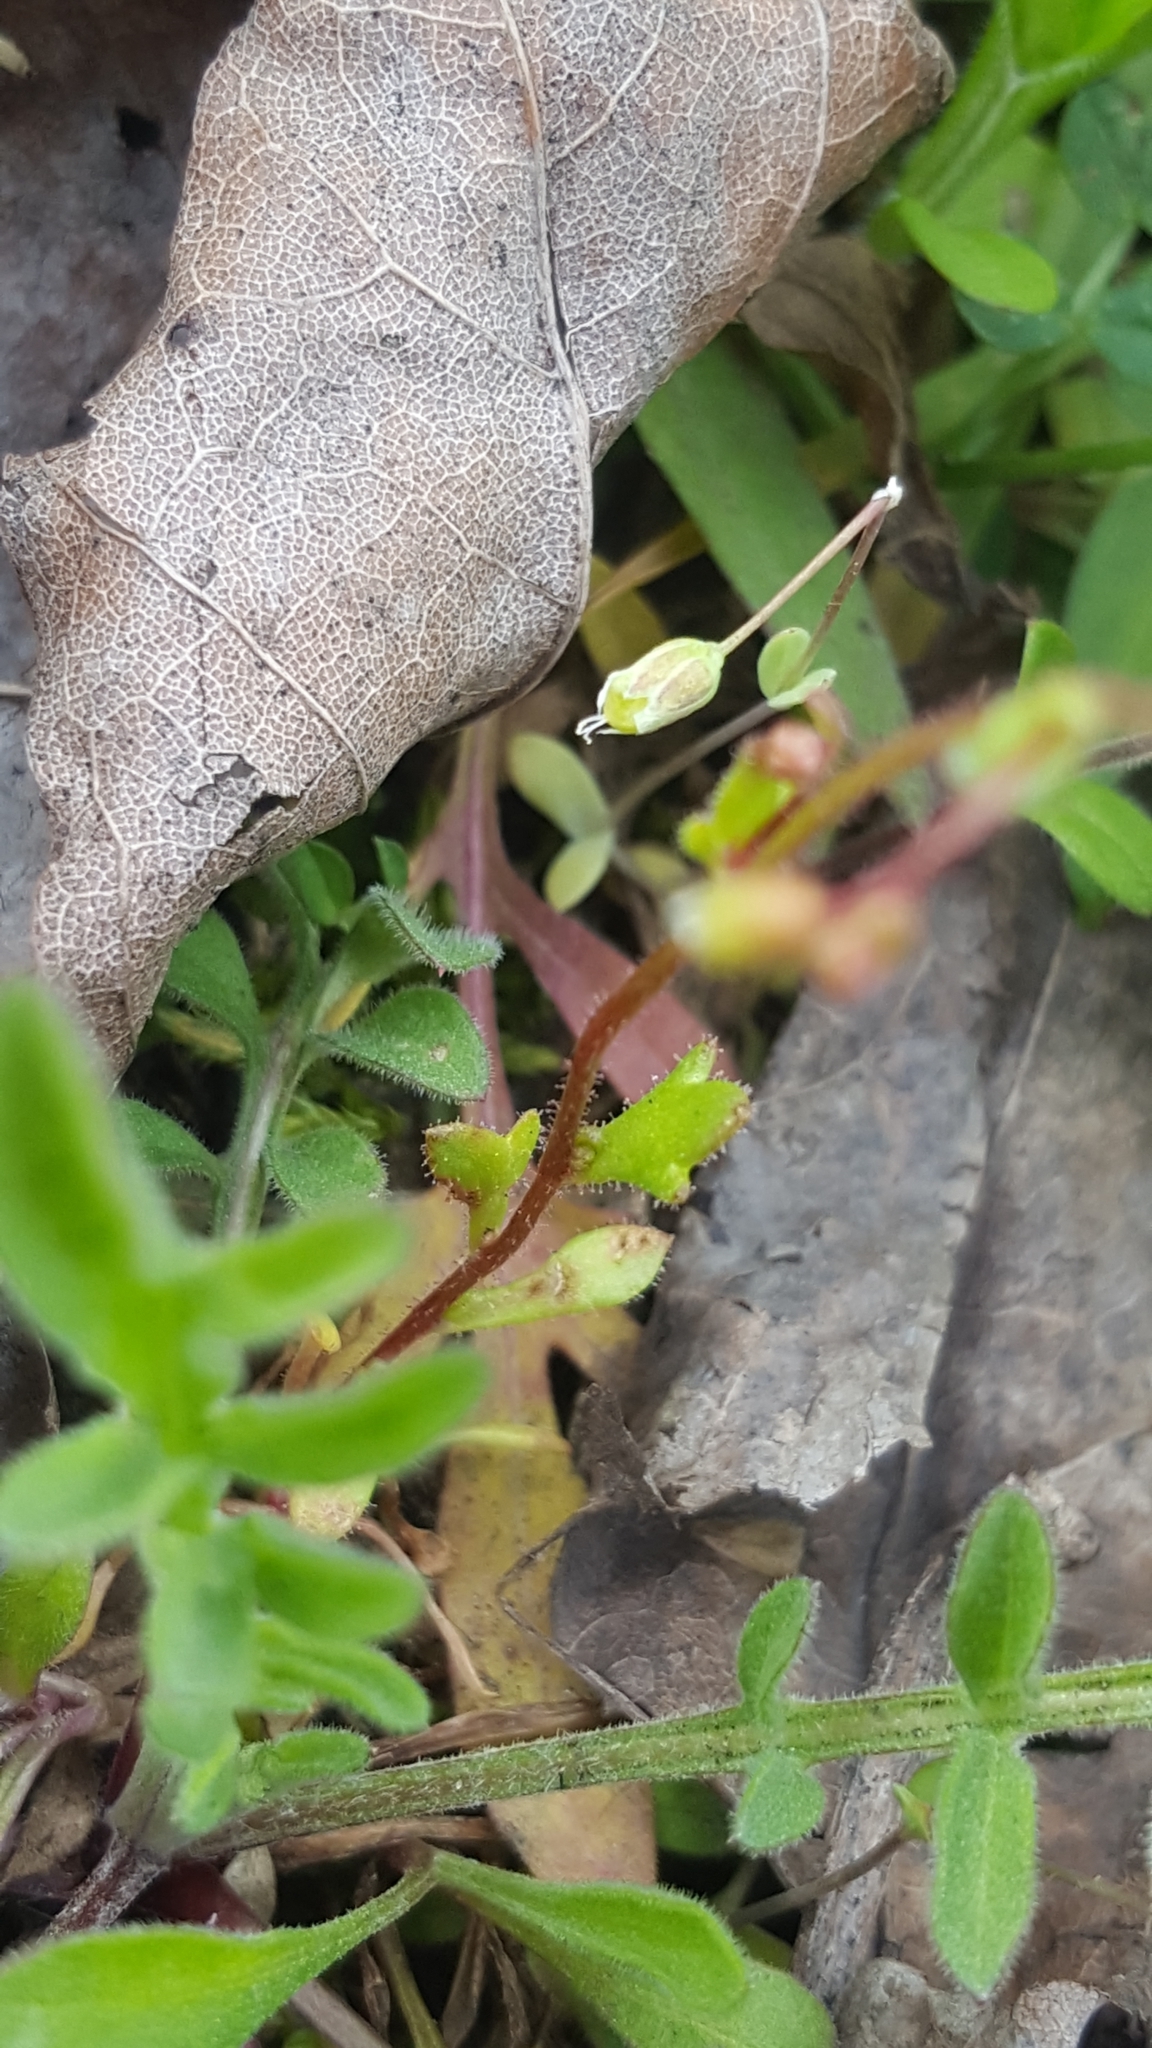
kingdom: Plantae
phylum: Tracheophyta
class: Magnoliopsida
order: Saxifragales
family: Saxifragaceae
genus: Saxifraga
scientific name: Saxifraga tridactylites
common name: Rue-leaved saxifrage
